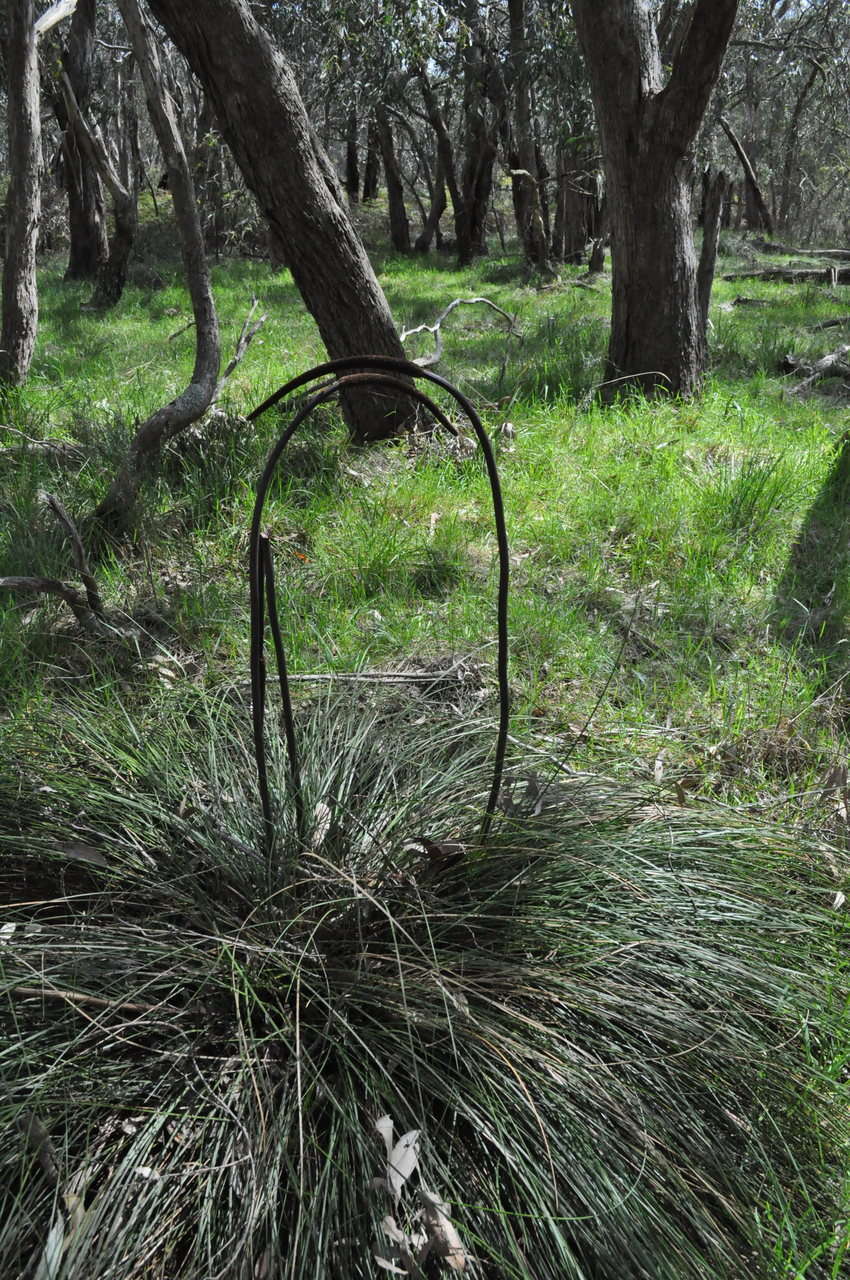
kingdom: Plantae
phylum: Tracheophyta
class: Liliopsida
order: Asparagales
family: Asphodelaceae
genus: Xanthorrhoea
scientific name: Xanthorrhoea minor
